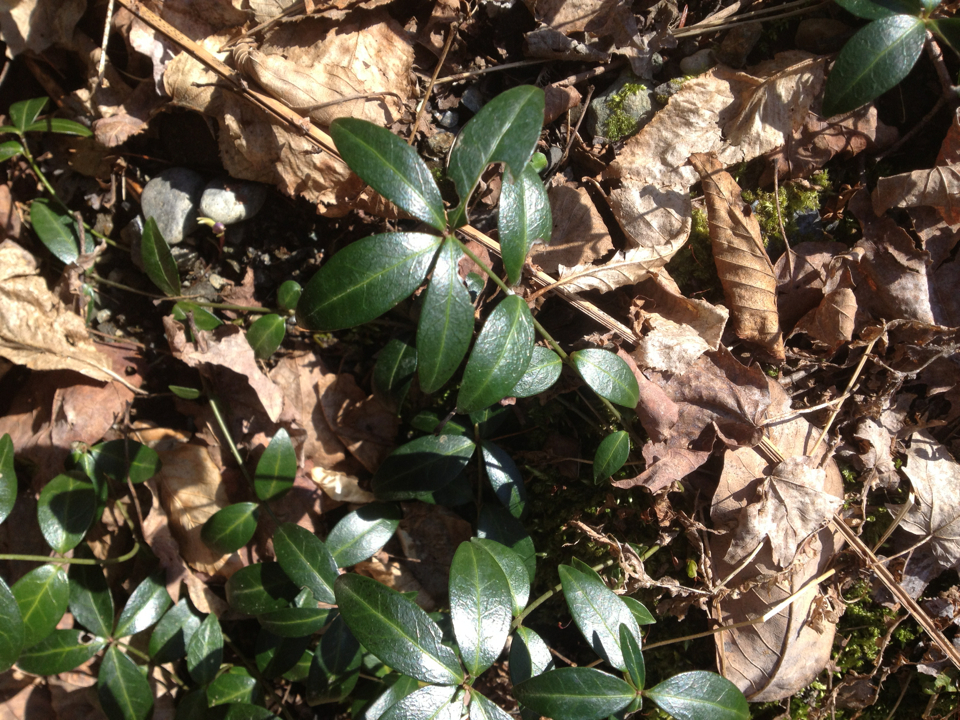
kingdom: Plantae
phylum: Tracheophyta
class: Magnoliopsida
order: Gentianales
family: Apocynaceae
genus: Vinca
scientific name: Vinca minor
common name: Lesser periwinkle
